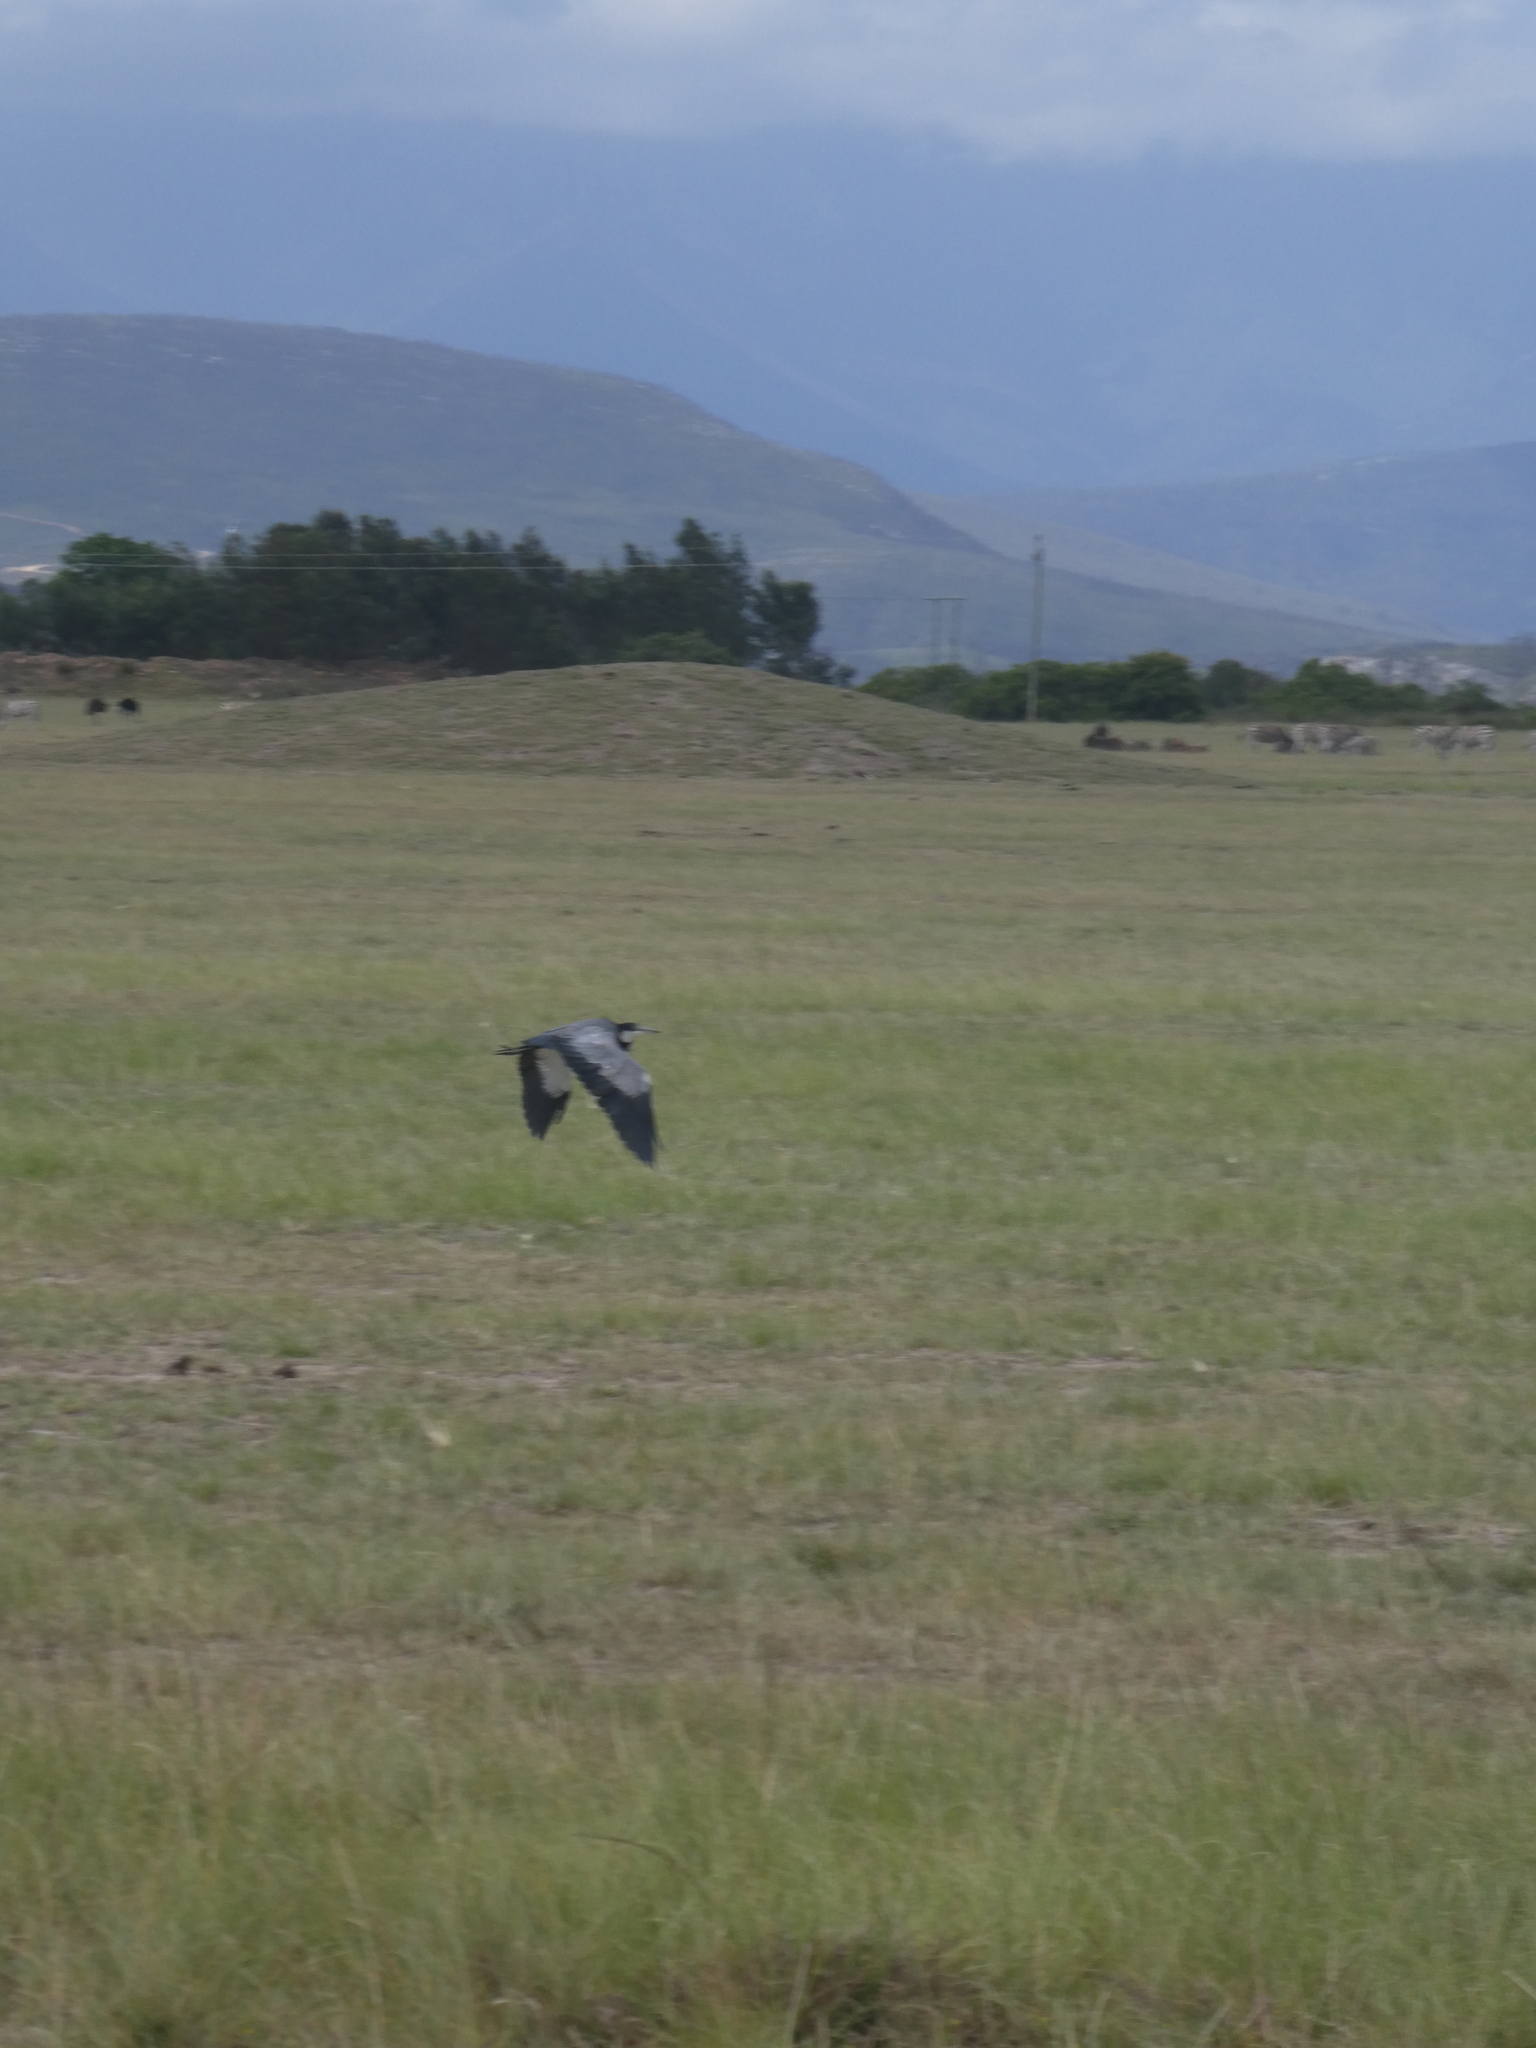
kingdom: Animalia
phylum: Chordata
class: Aves
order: Pelecaniformes
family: Ardeidae
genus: Ardea
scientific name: Ardea melanocephala
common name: Black-headed heron
